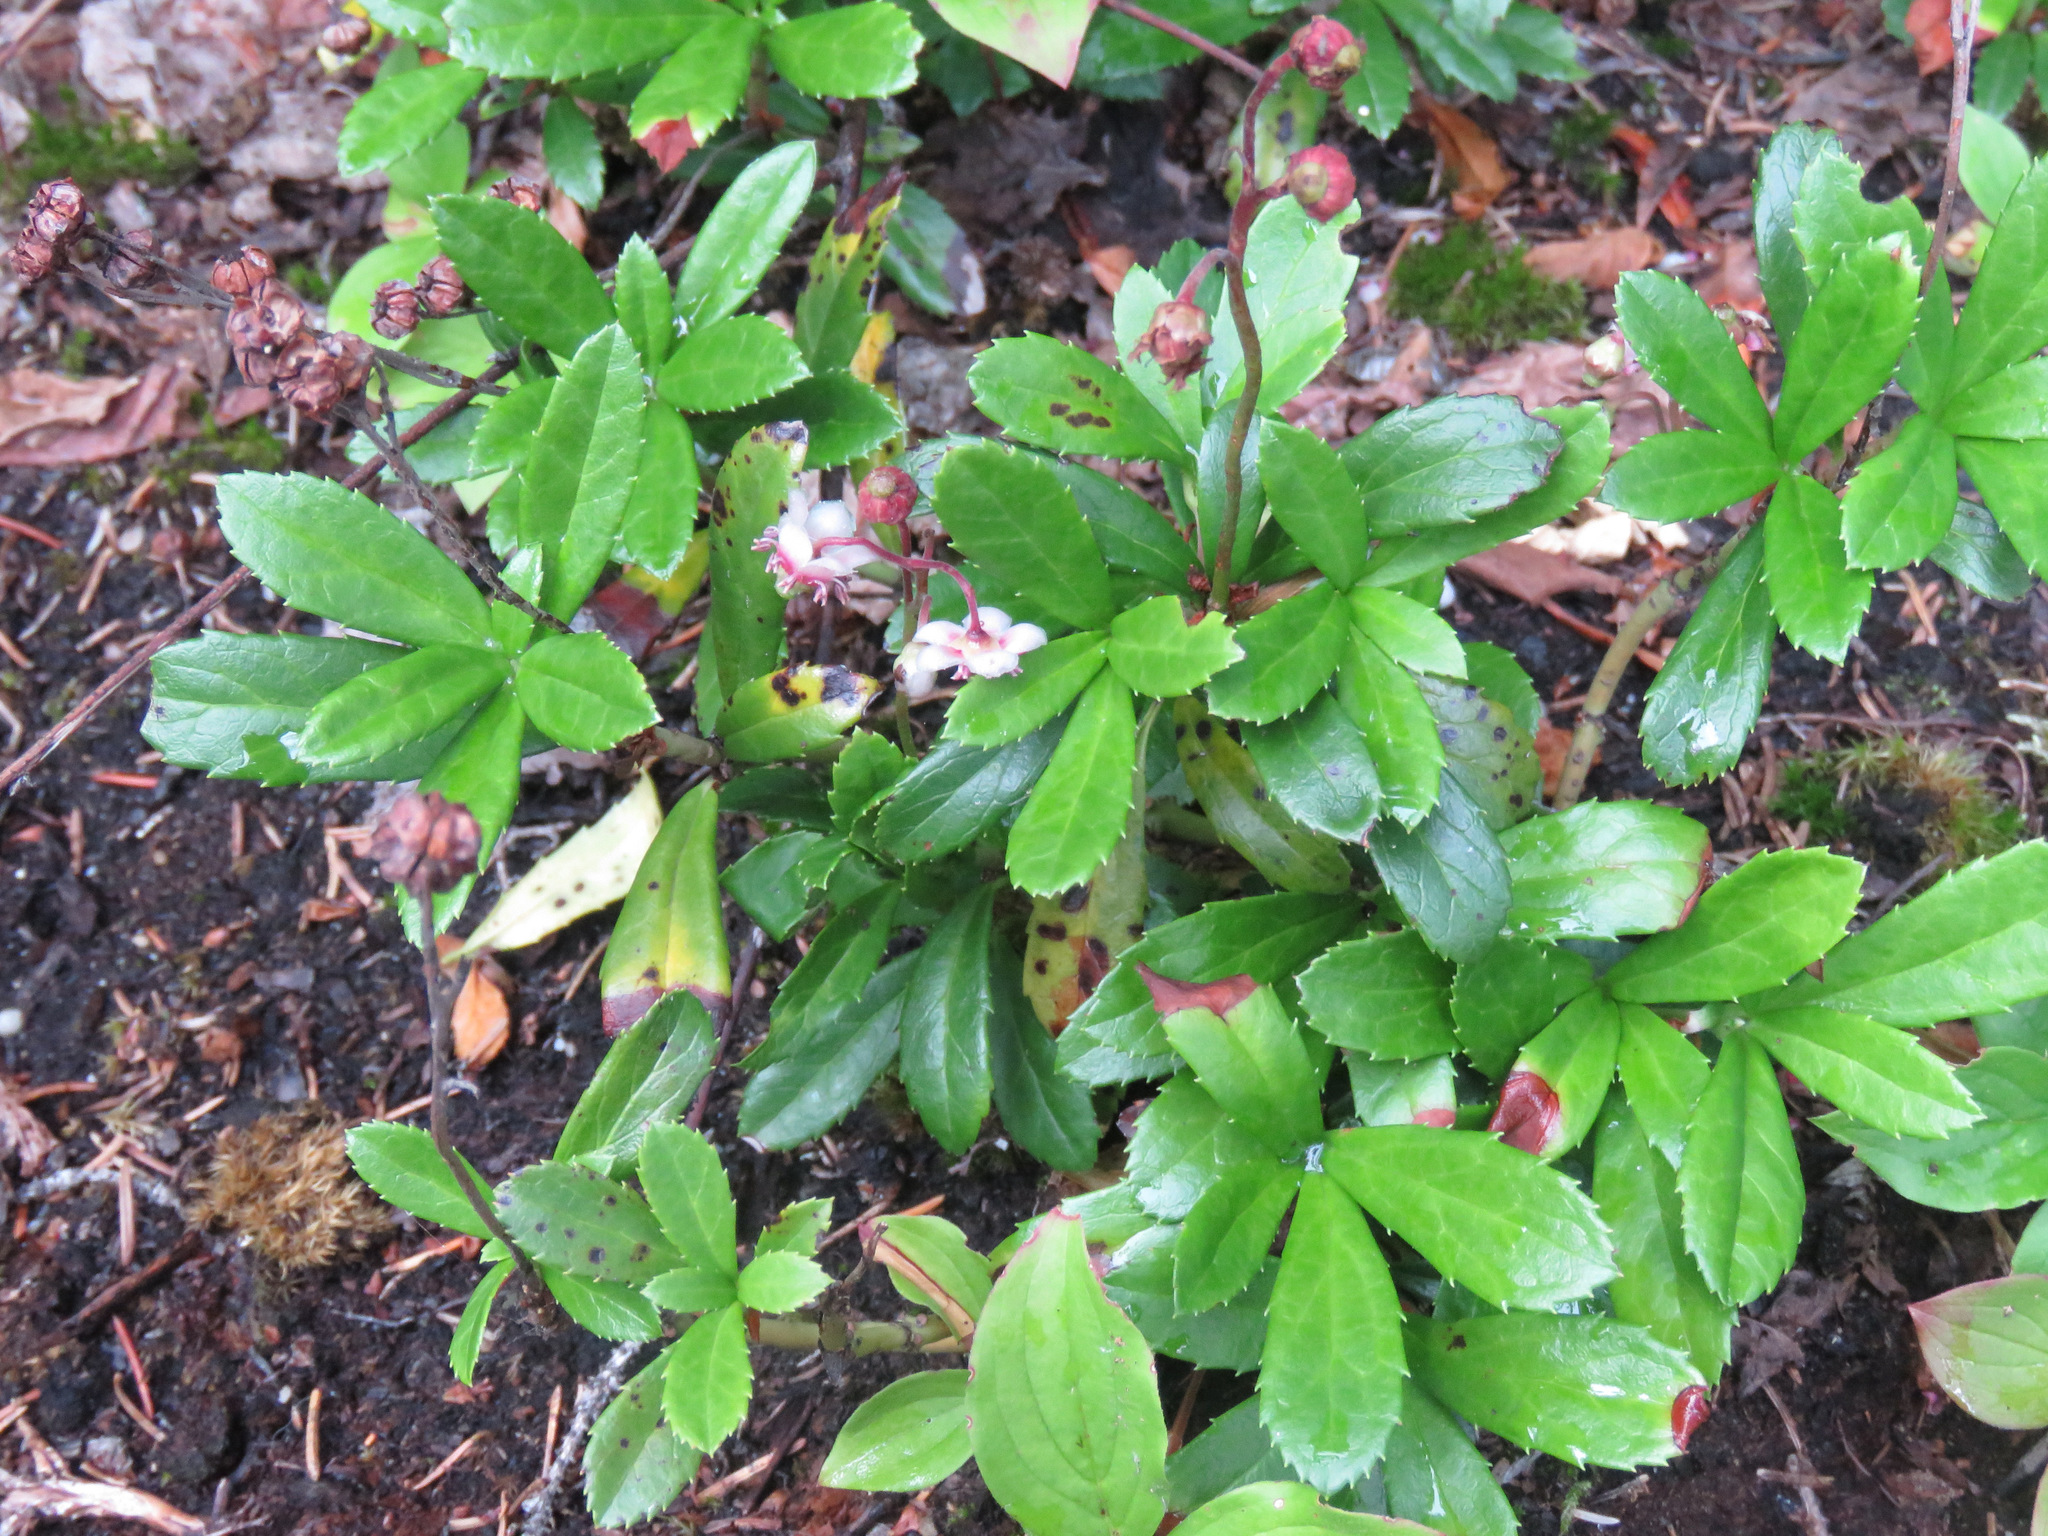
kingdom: Plantae
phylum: Tracheophyta
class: Magnoliopsida
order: Ericales
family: Ericaceae
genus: Chimaphila
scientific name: Chimaphila umbellata
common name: Pipsissewa
